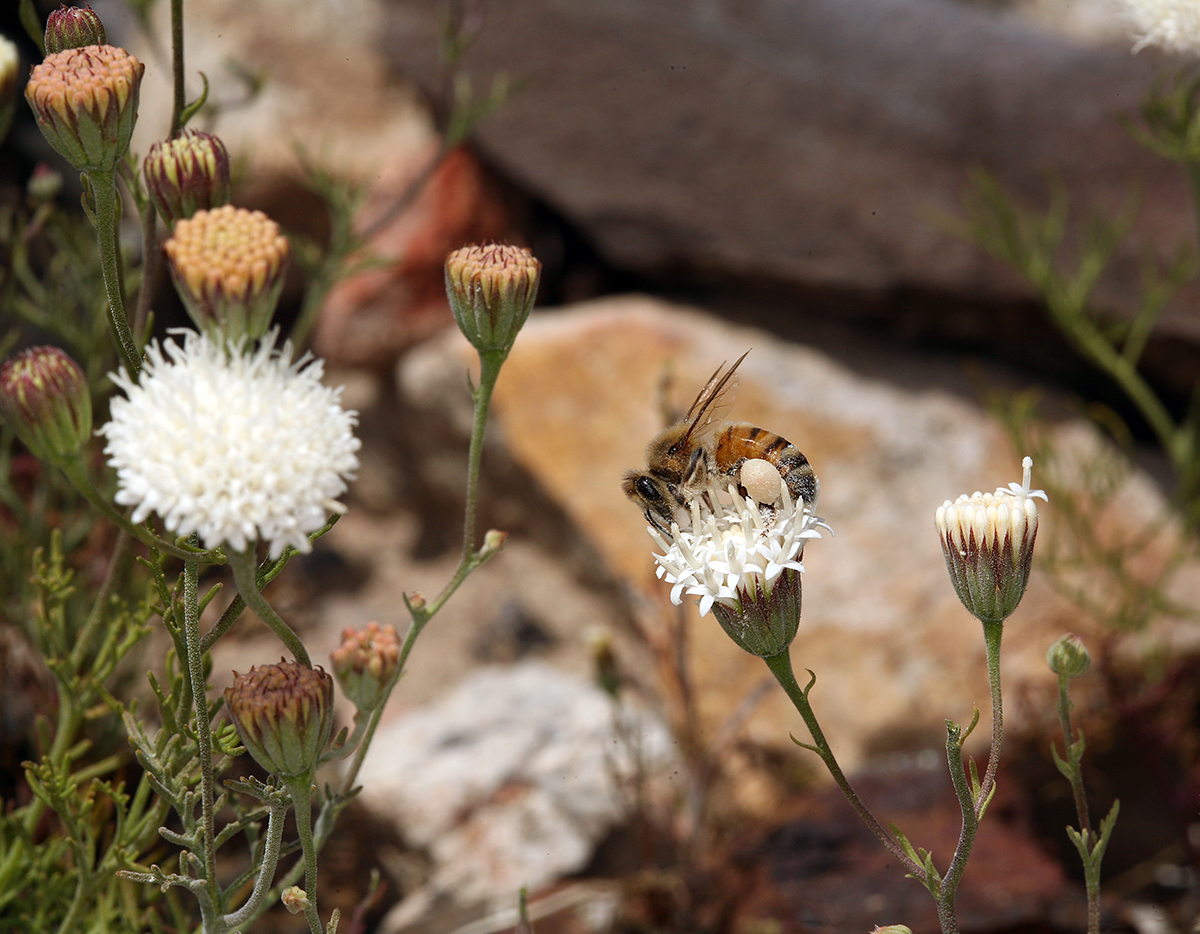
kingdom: Plantae
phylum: Tracheophyta
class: Magnoliopsida
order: Asterales
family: Asteraceae
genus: Chaenactis
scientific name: Chaenactis carphoclinia
